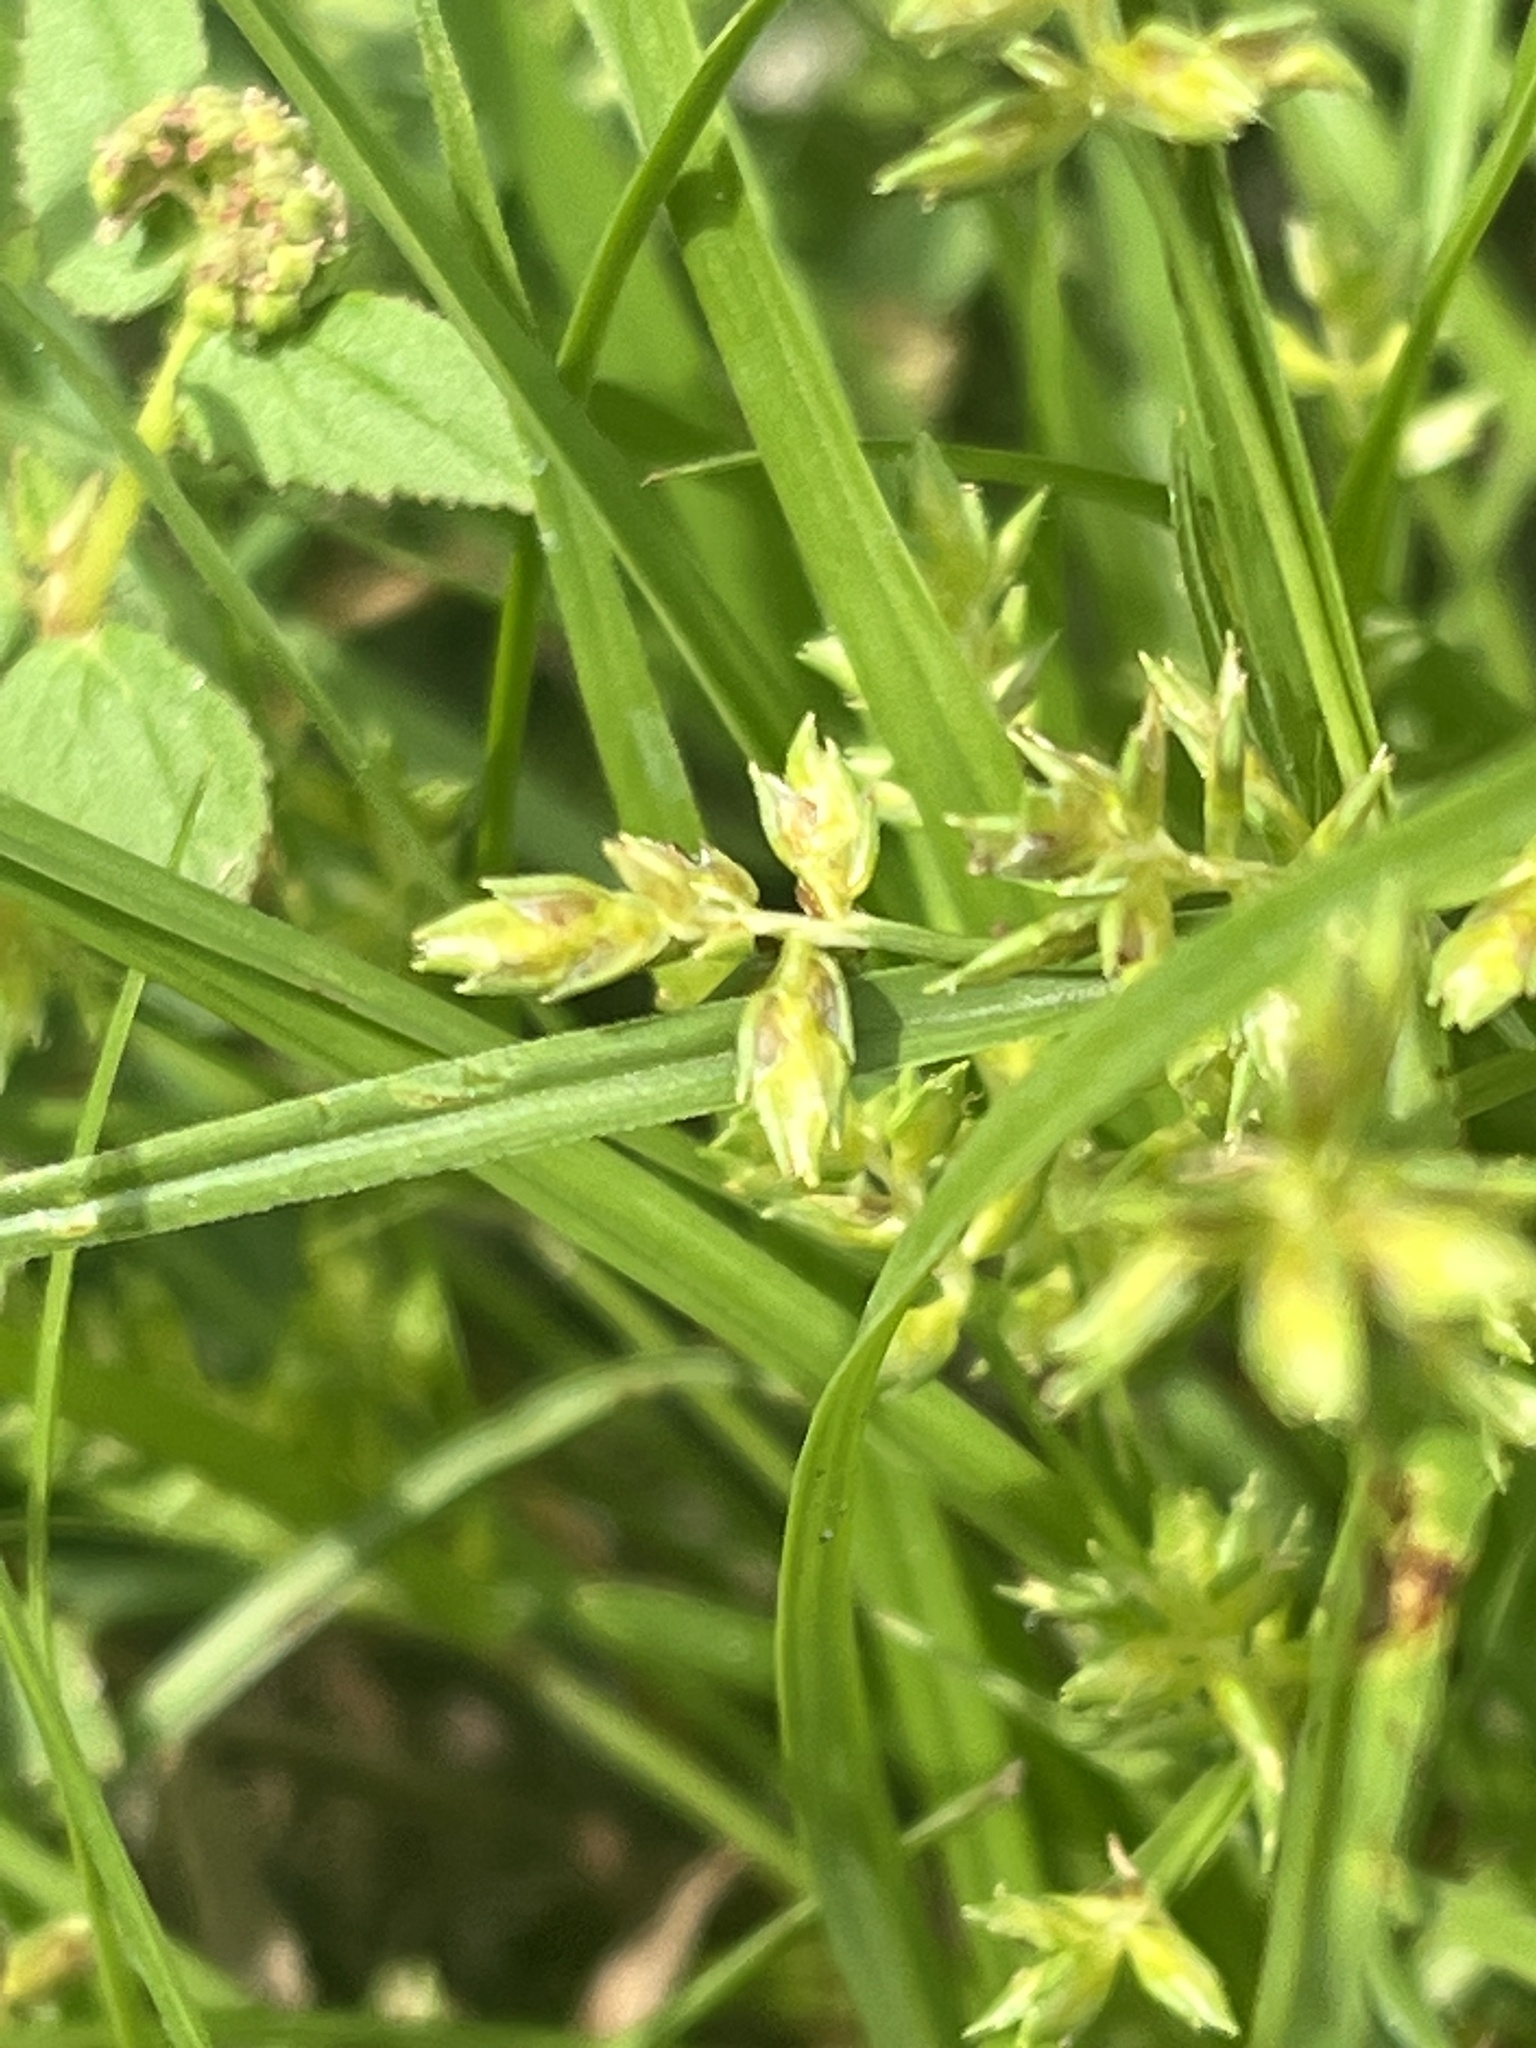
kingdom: Plantae
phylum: Tracheophyta
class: Liliopsida
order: Poales
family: Cyperaceae
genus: Cyperus
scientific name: Cyperus hyalinus
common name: Queensland sedge
